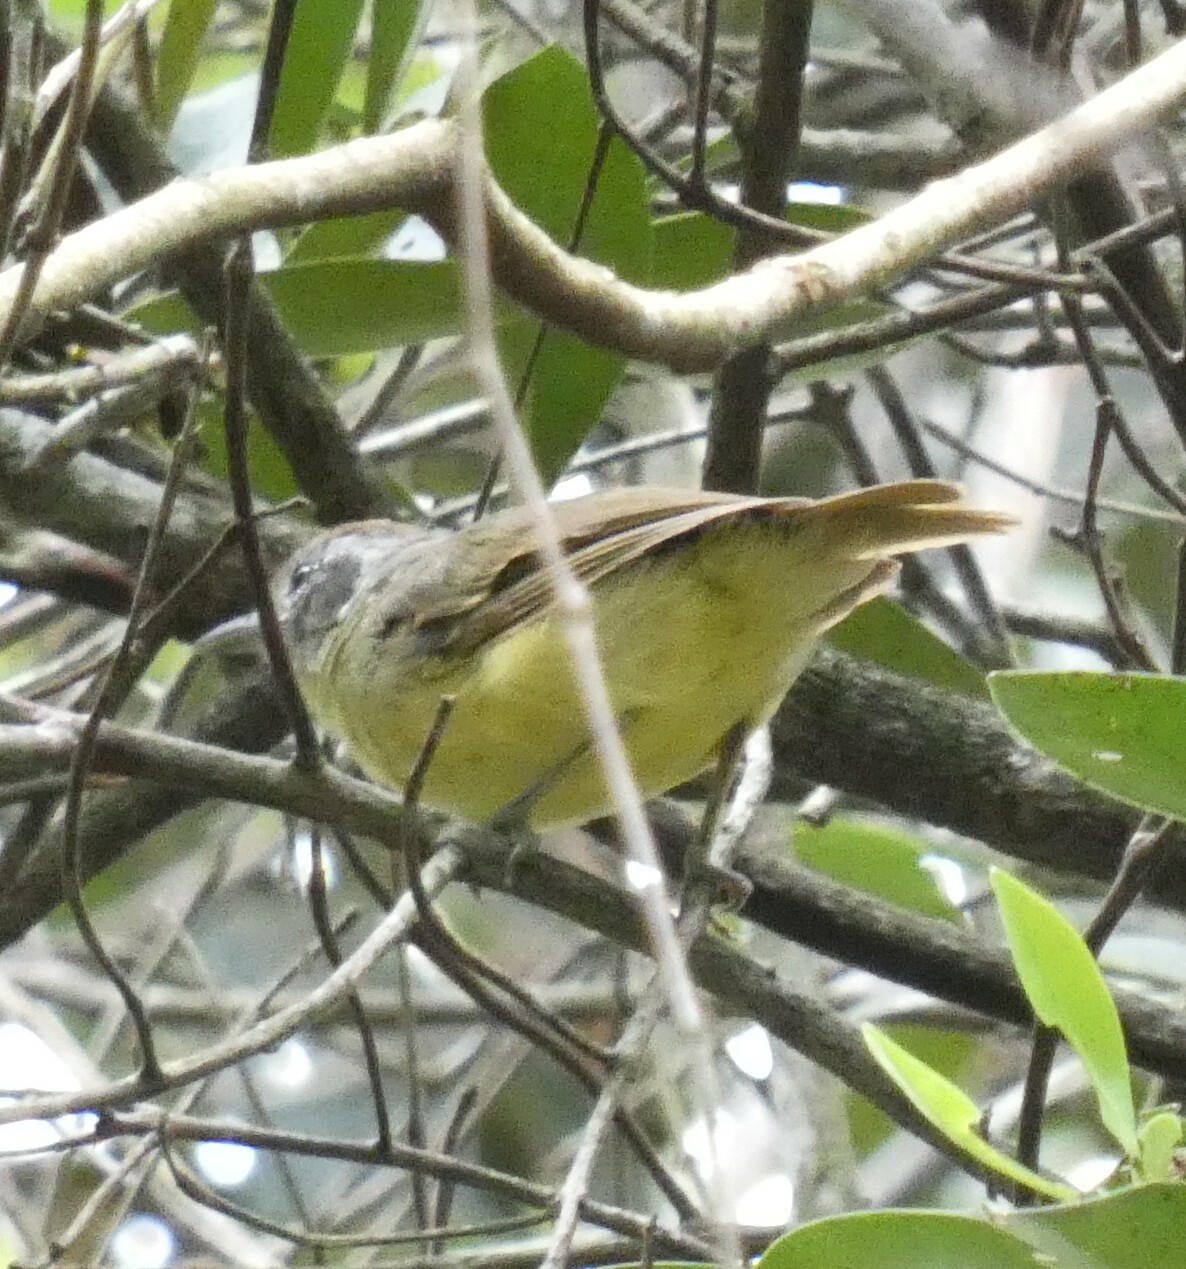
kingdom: Animalia
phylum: Chordata
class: Aves
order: Passeriformes
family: Thamnophilidae
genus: Dysithamnus
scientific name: Dysithamnus mentalis
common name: Plain antvireo
